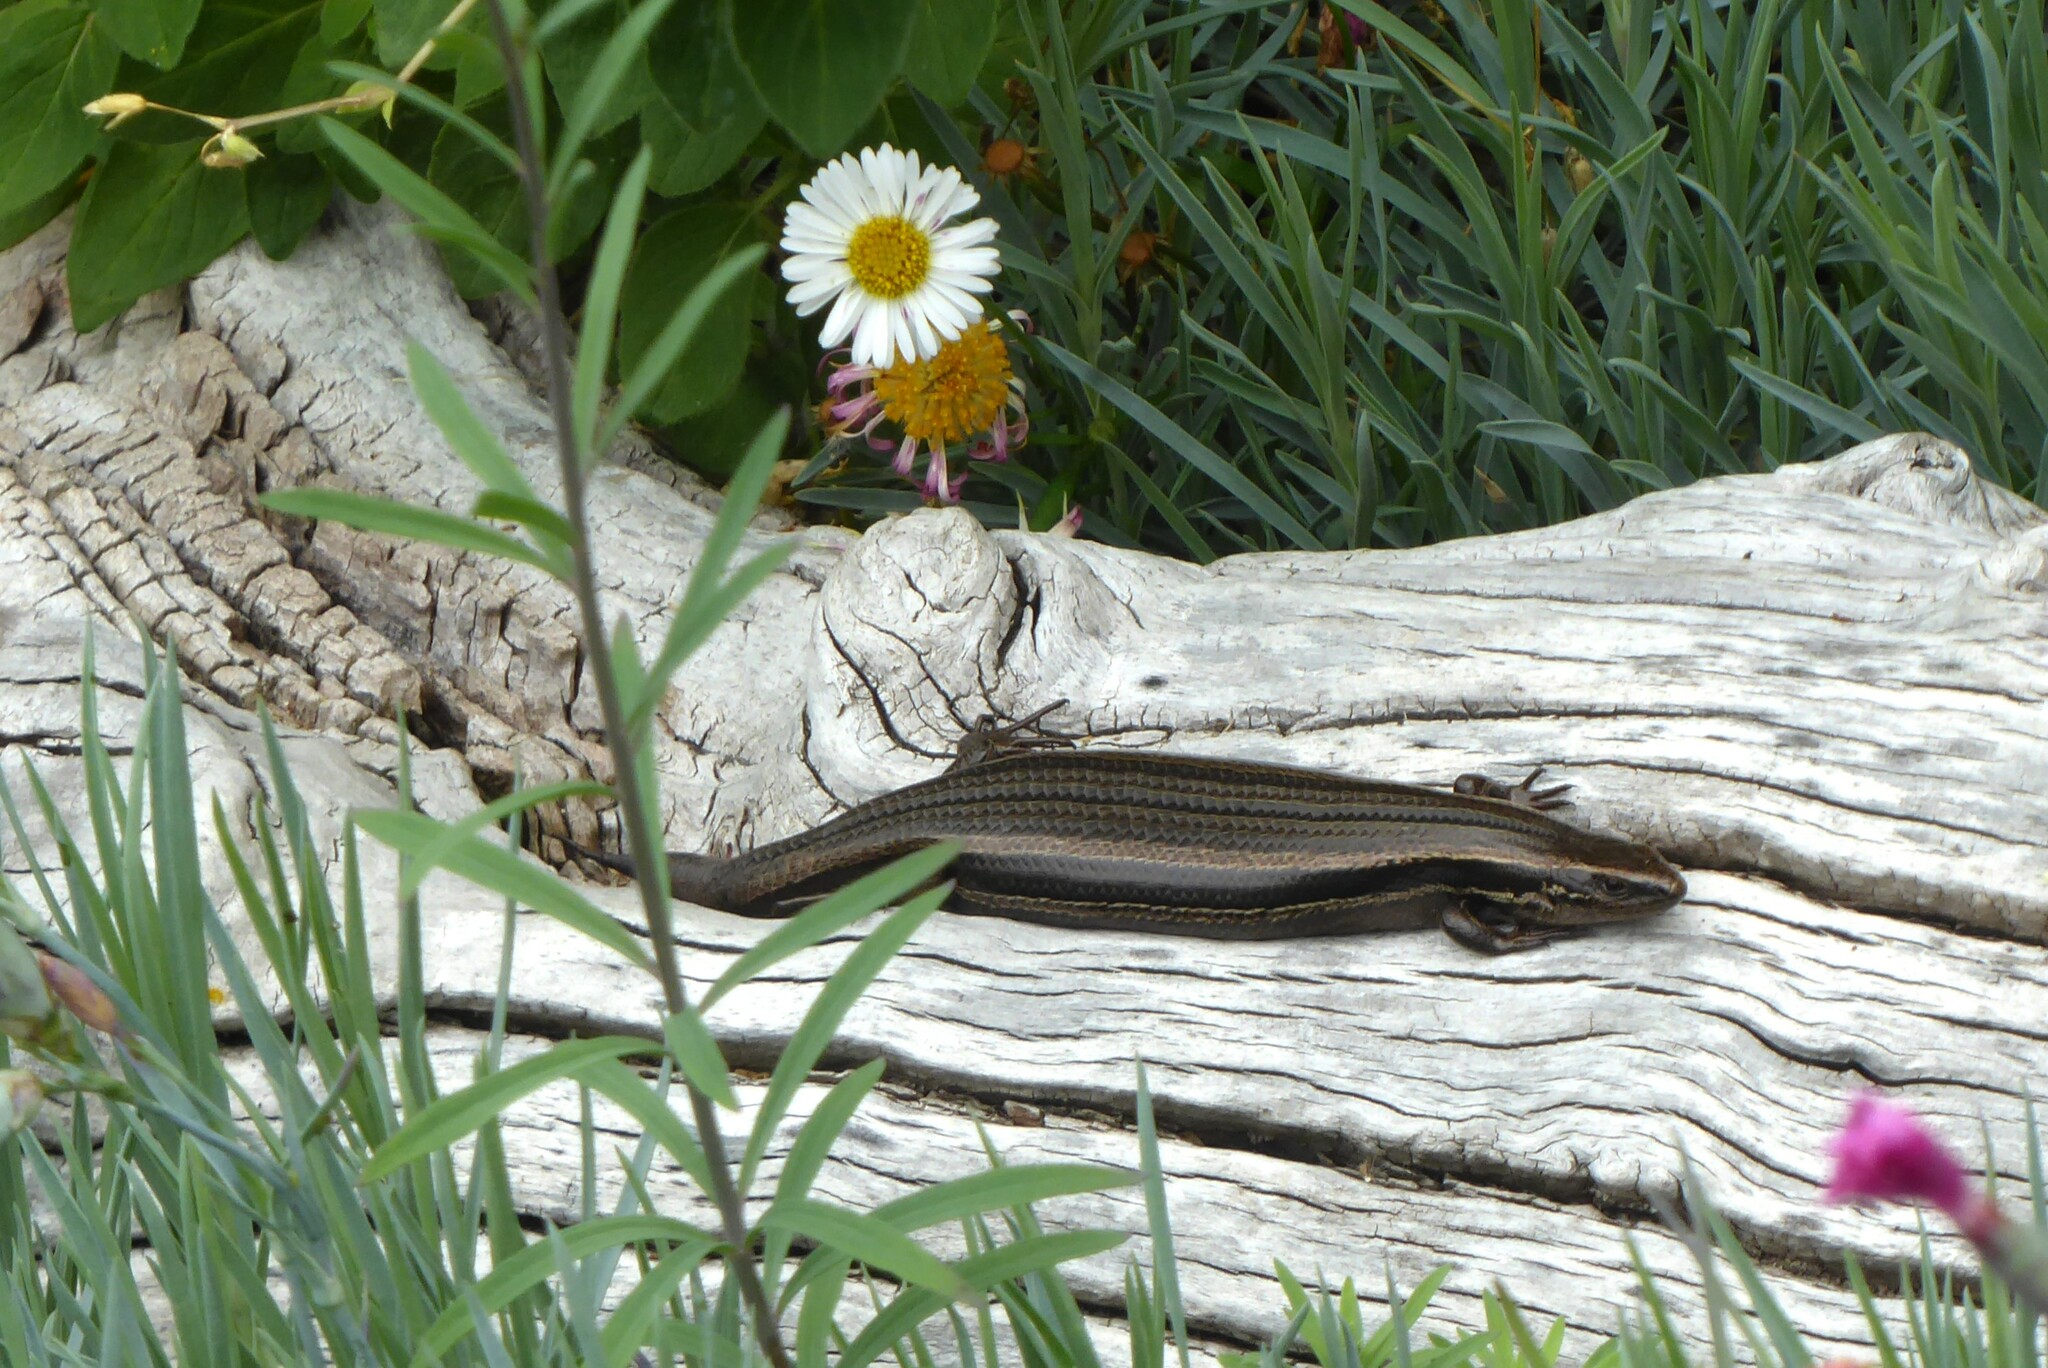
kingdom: Animalia
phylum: Chordata
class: Squamata
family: Scincidae
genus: Oligosoma
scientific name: Oligosoma polychroma
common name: Common new zealand skink
